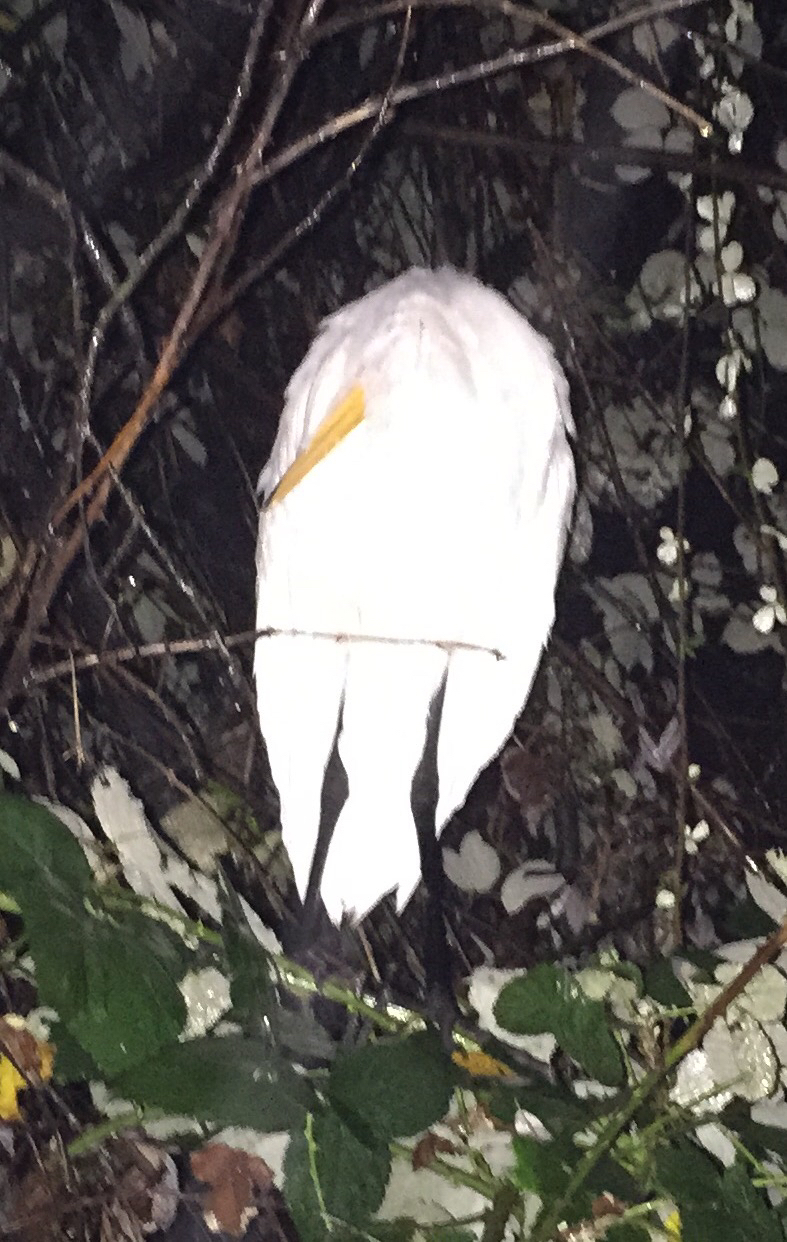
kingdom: Animalia
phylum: Chordata
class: Aves
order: Pelecaniformes
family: Ardeidae
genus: Ardea
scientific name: Ardea alba
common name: Great egret
